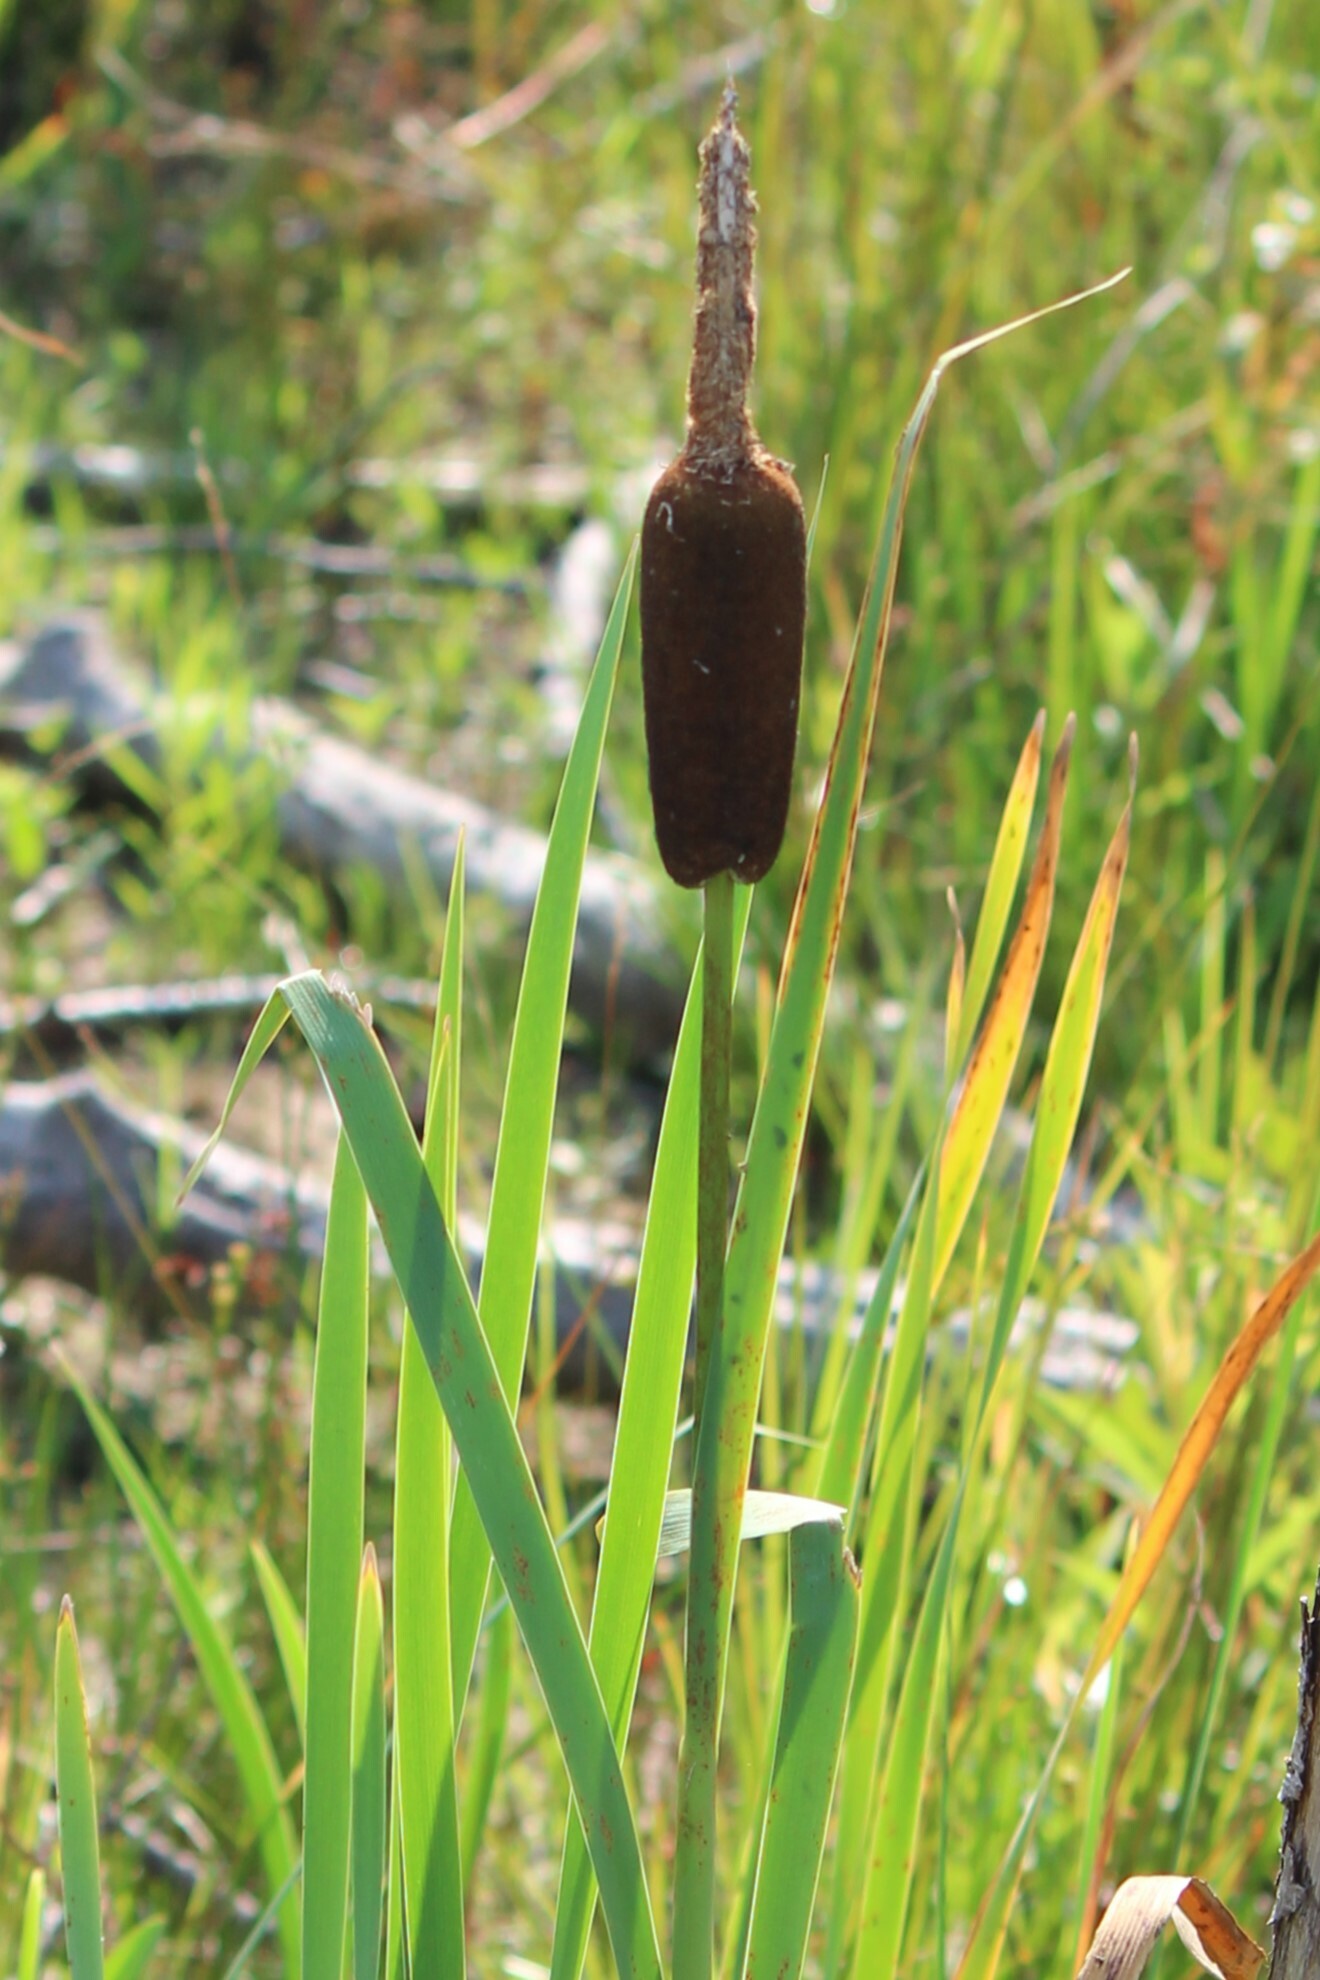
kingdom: Plantae
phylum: Tracheophyta
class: Liliopsida
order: Poales
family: Typhaceae
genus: Typha
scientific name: Typha latifolia
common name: Broadleaf cattail
